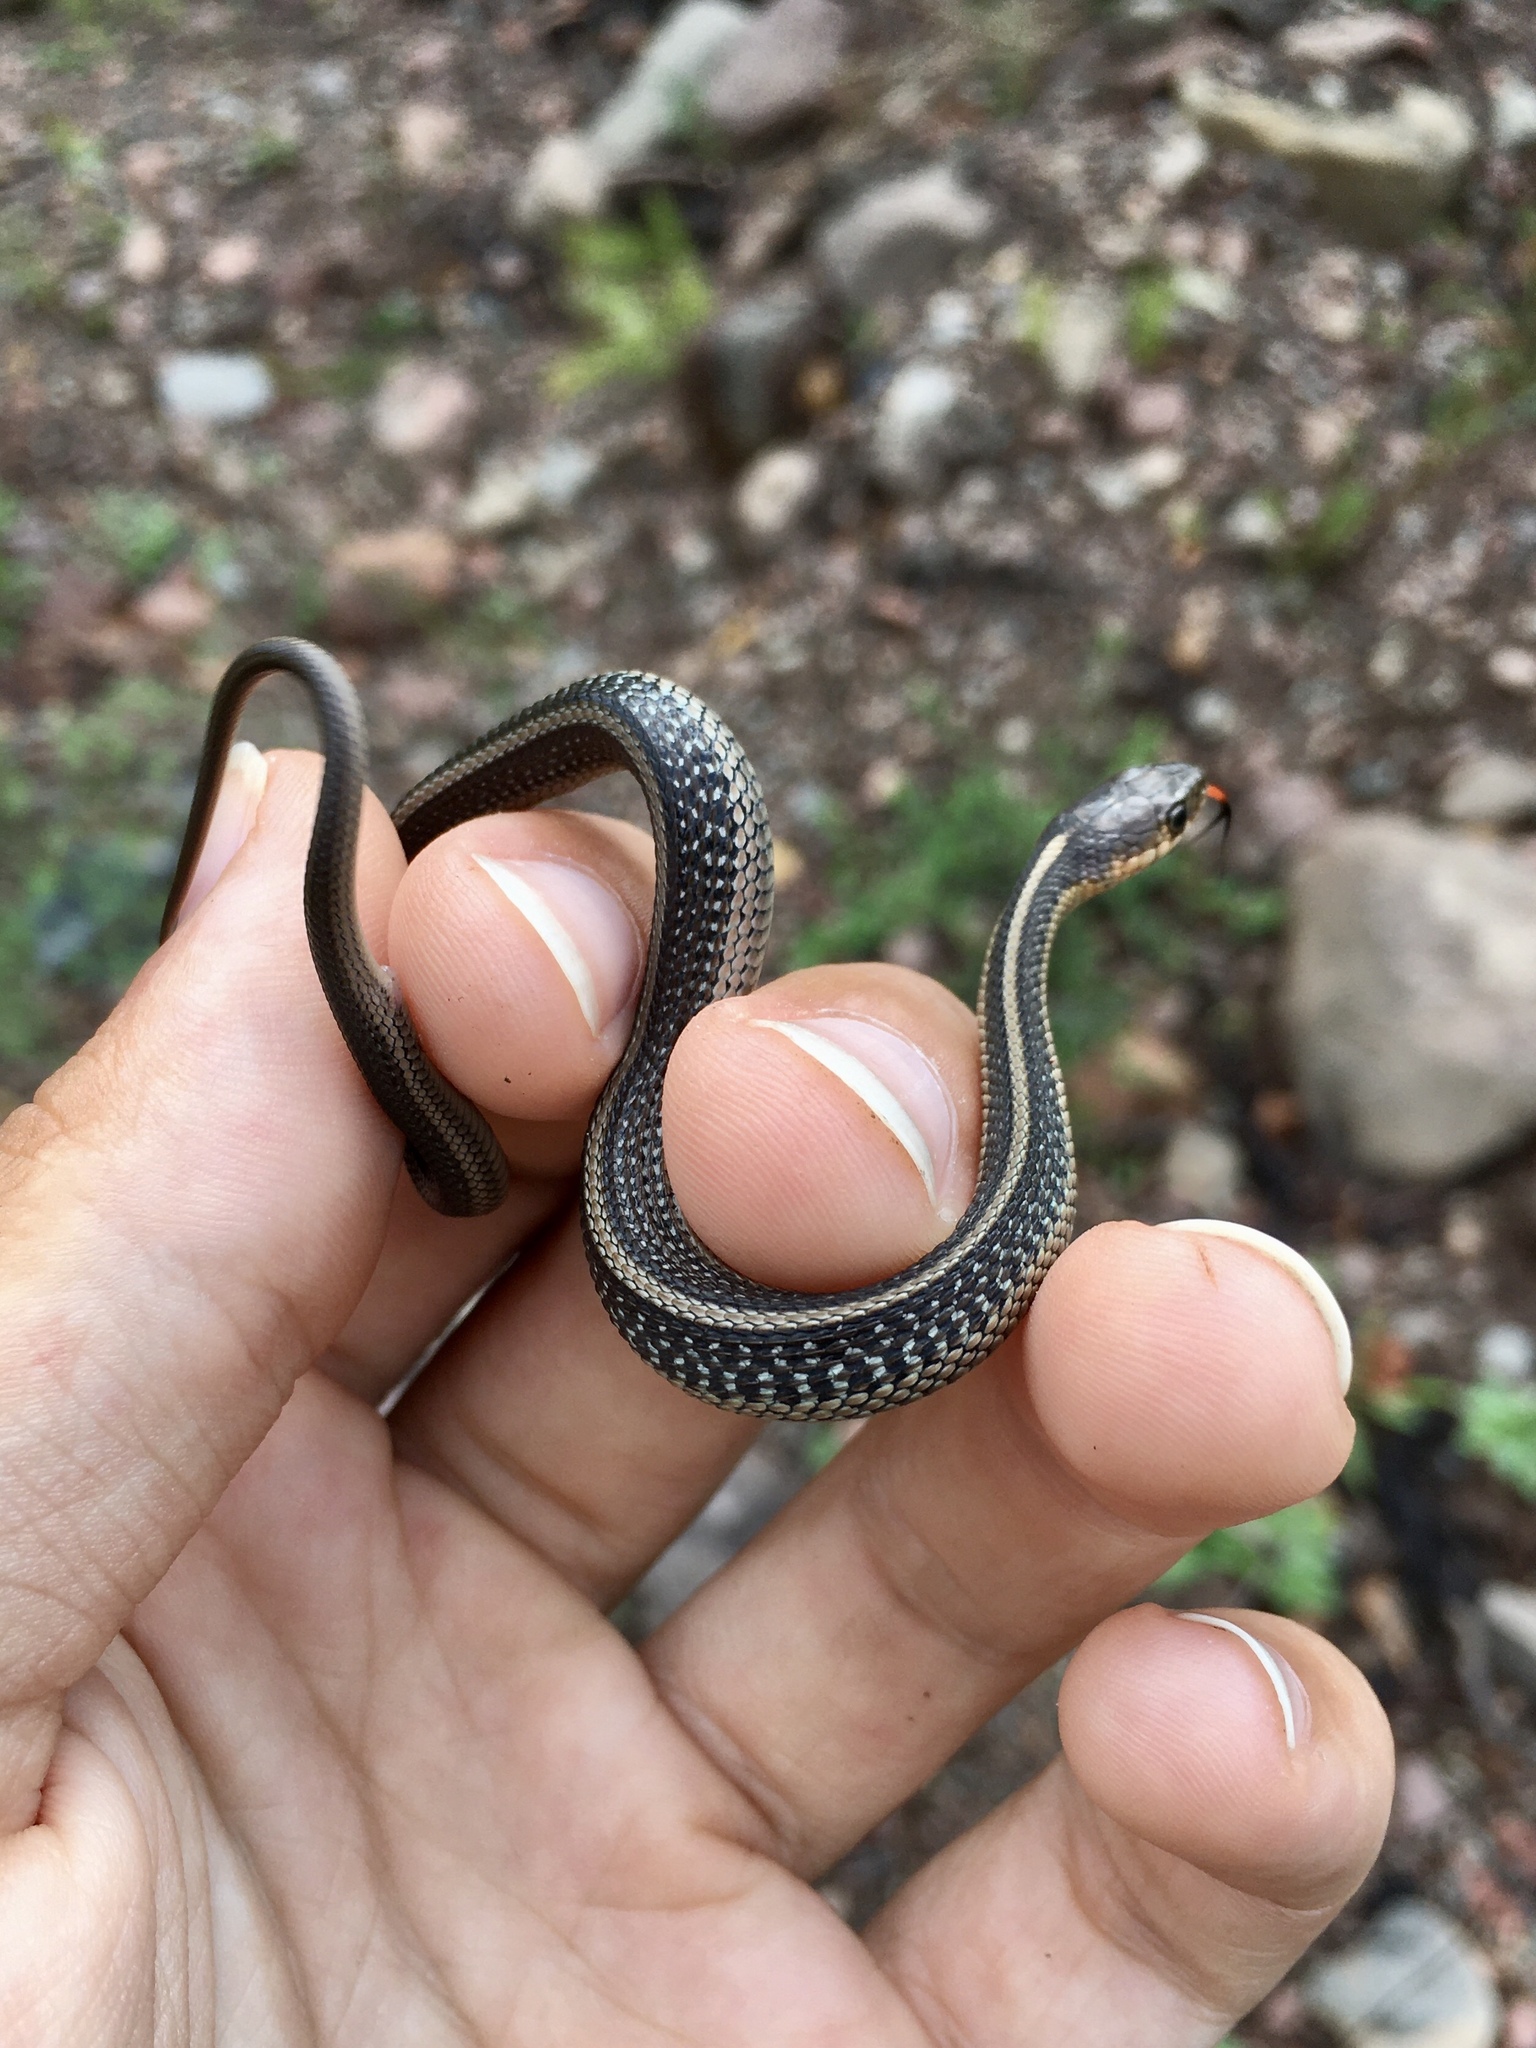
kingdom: Animalia
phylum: Chordata
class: Squamata
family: Colubridae
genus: Thamnophis
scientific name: Thamnophis sirtalis
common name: Common garter snake
